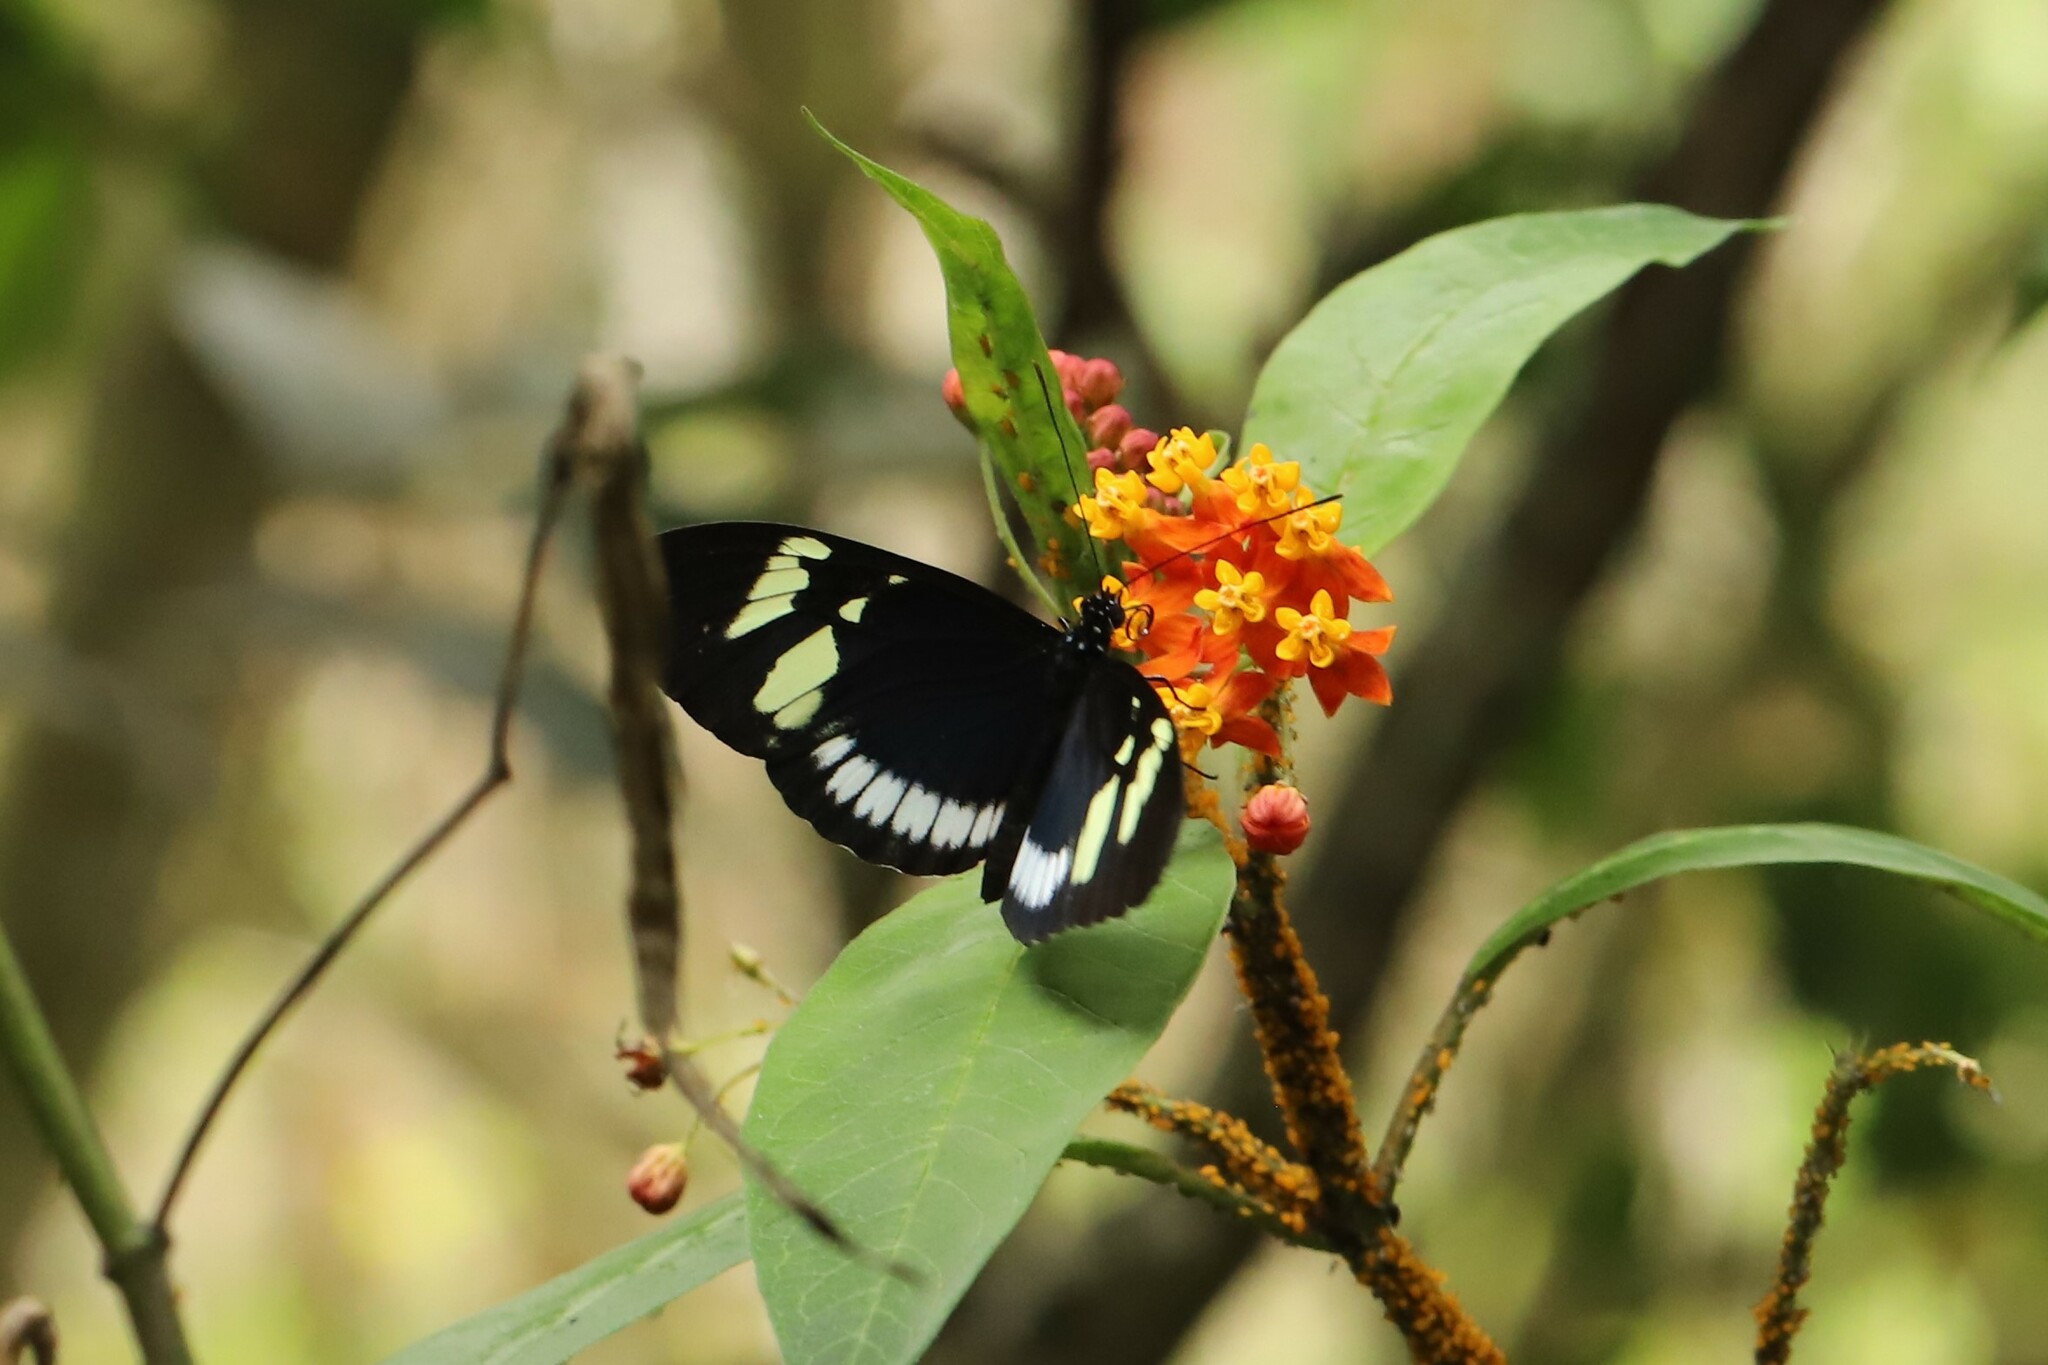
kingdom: Animalia
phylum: Arthropoda
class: Insecta
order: Lepidoptera
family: Nymphalidae
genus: Heliconius
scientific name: Heliconius cydno
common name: Cydno longwing
